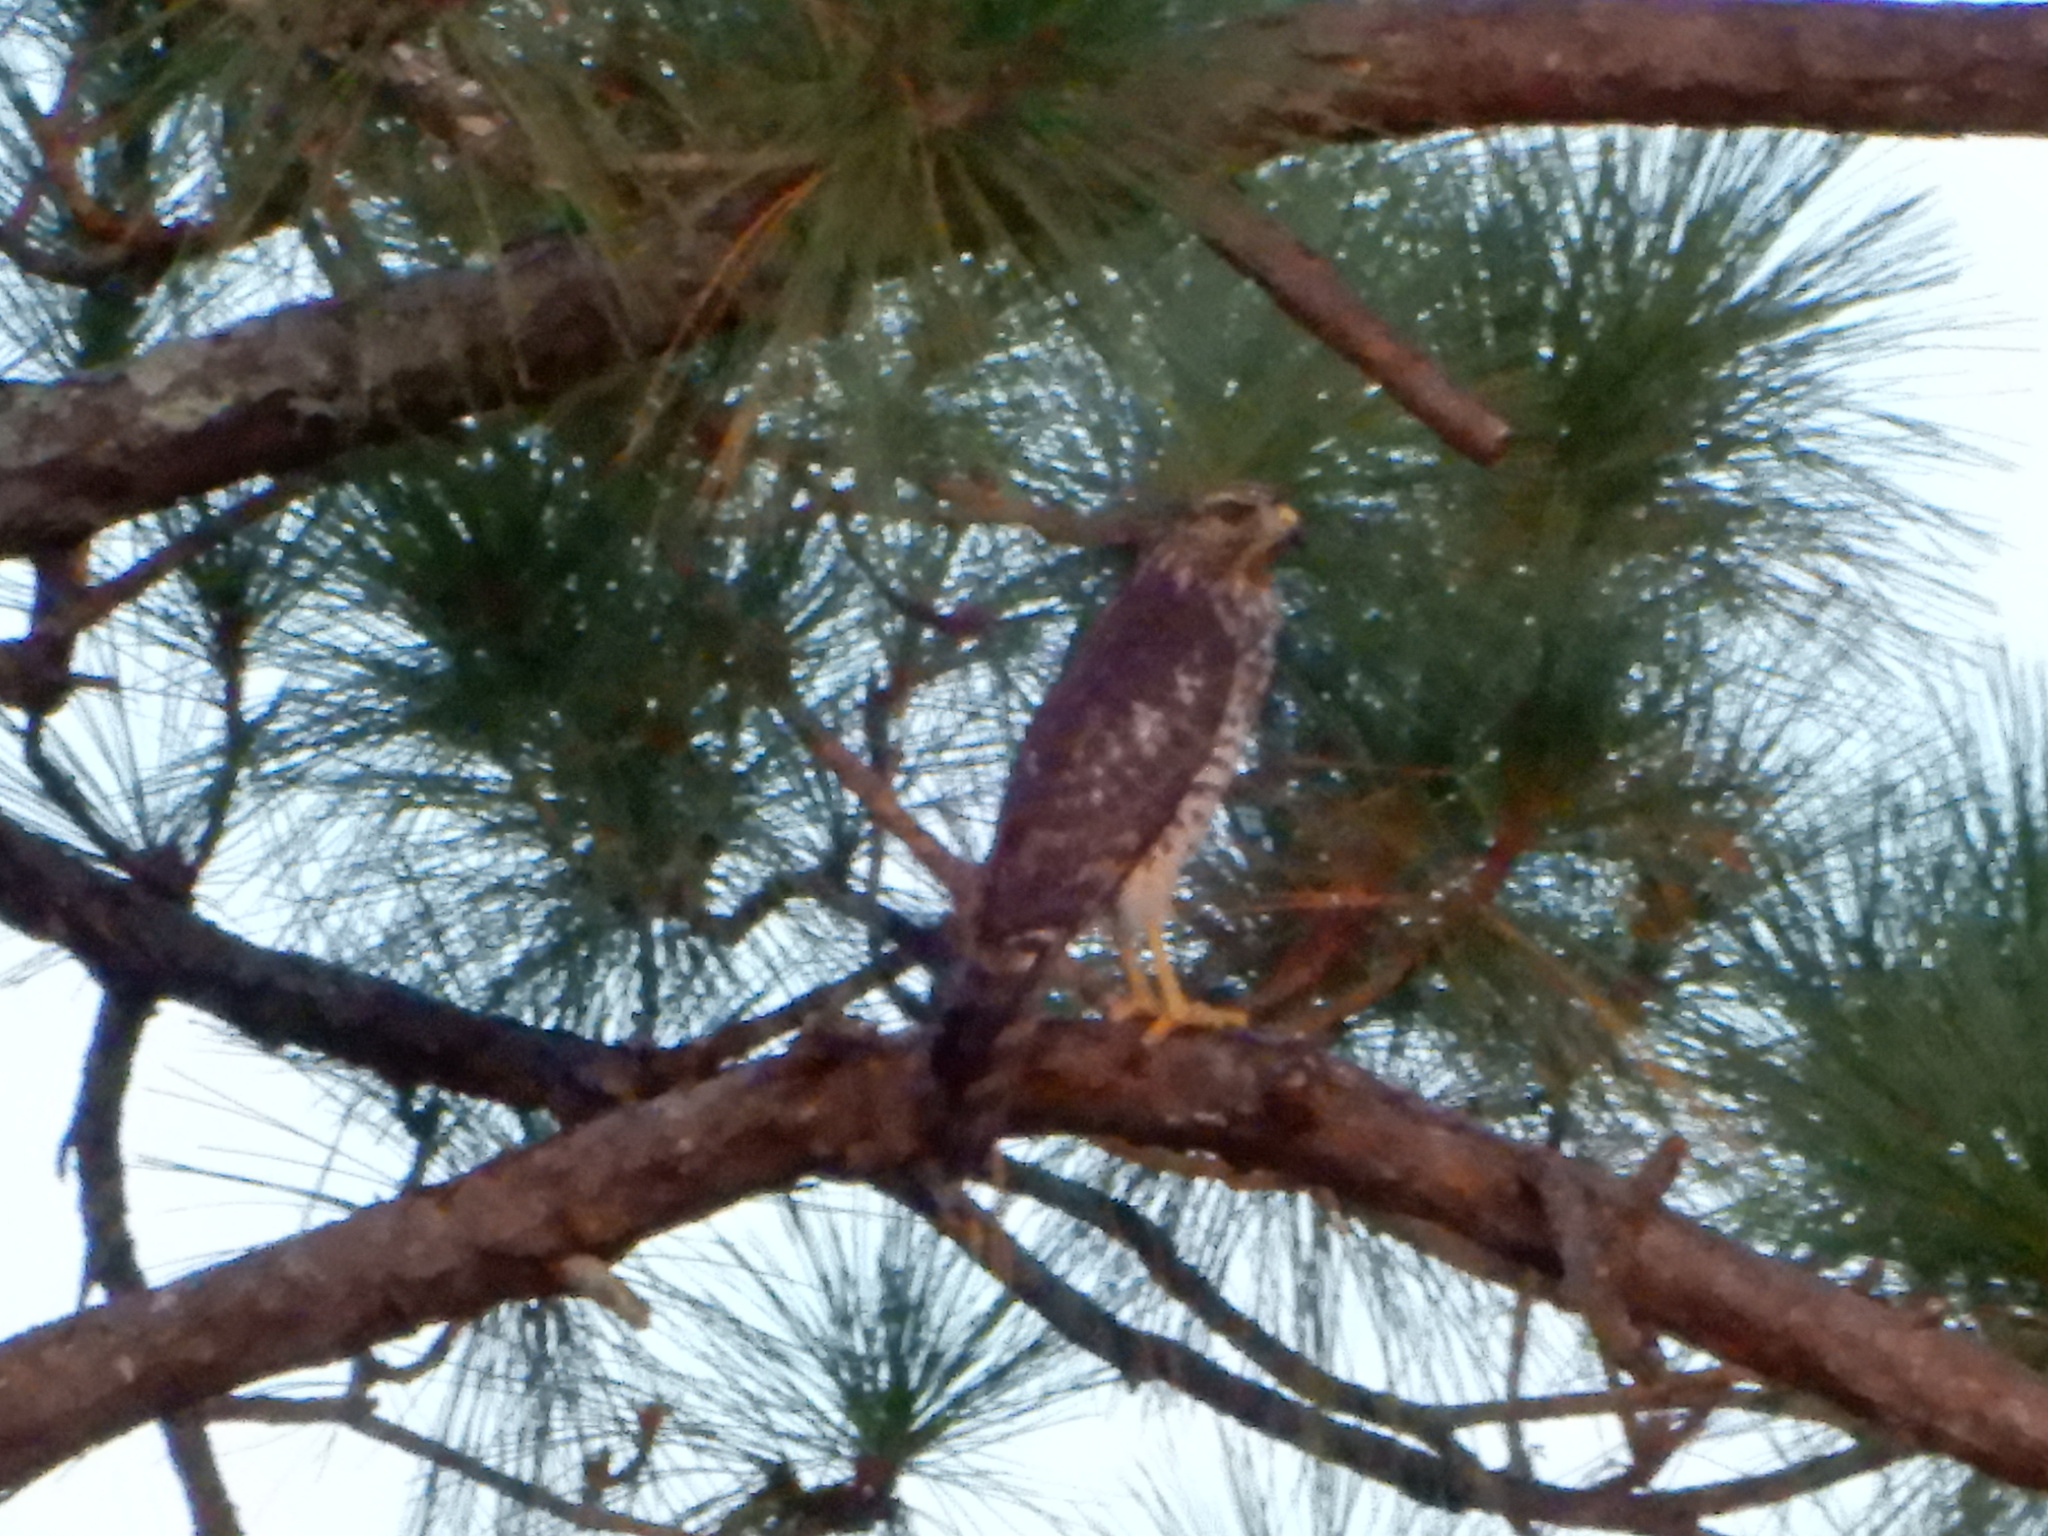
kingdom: Animalia
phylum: Chordata
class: Aves
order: Accipitriformes
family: Accipitridae
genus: Buteo
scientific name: Buteo lineatus
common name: Red-shouldered hawk
